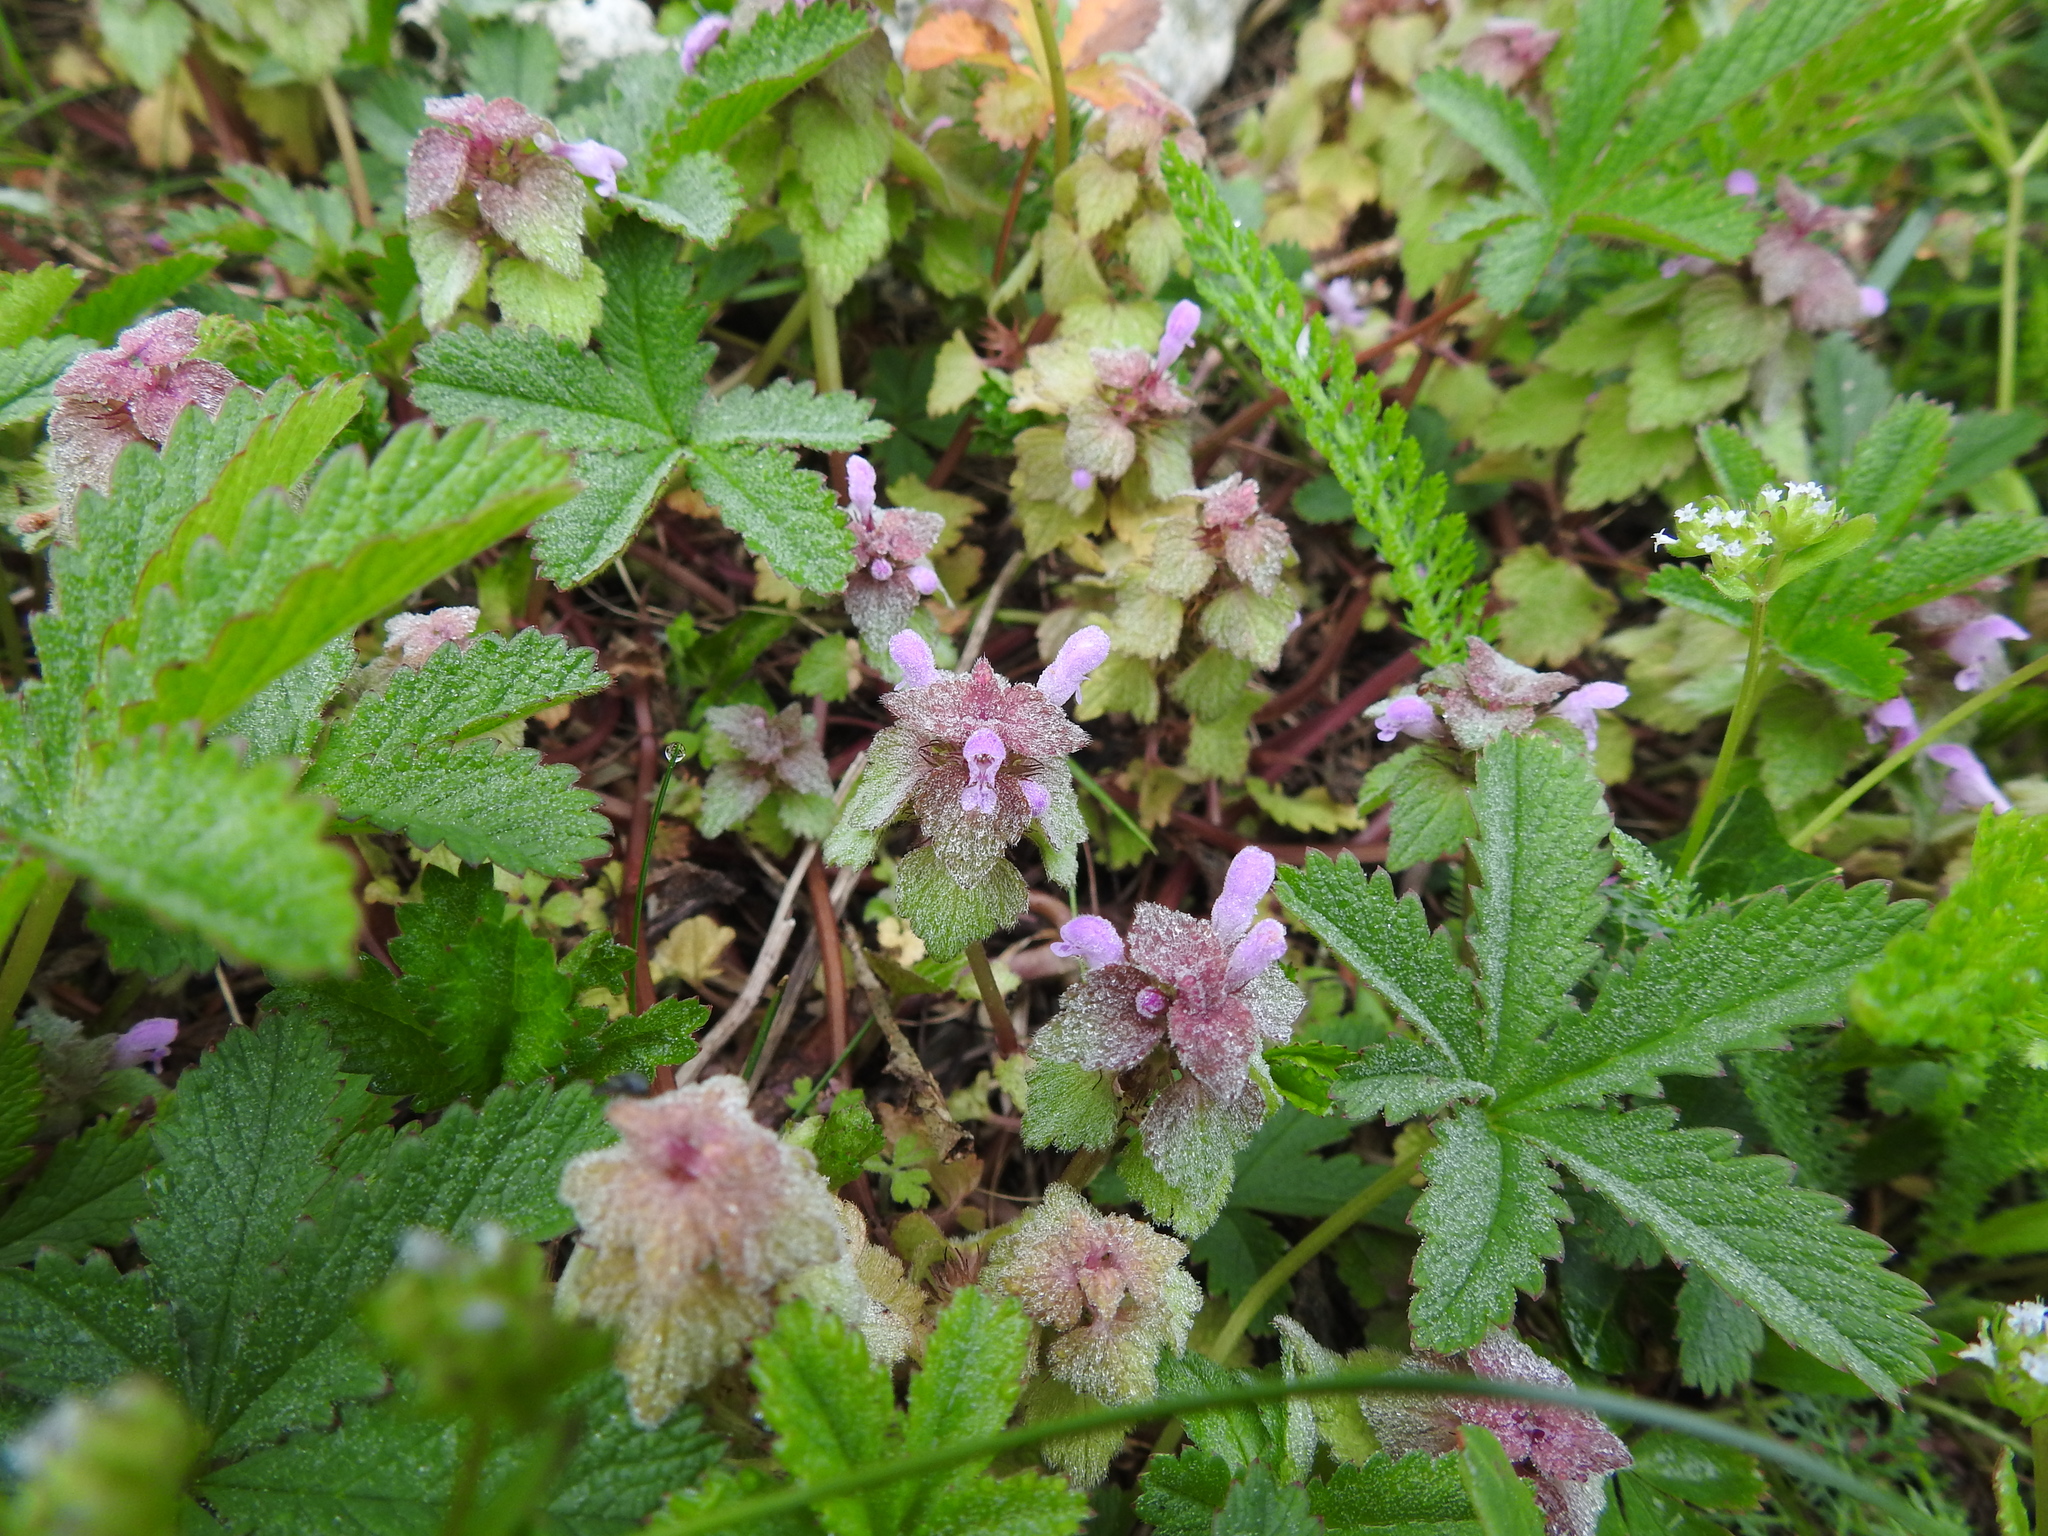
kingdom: Plantae
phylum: Tracheophyta
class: Magnoliopsida
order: Lamiales
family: Lamiaceae
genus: Lamium
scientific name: Lamium purpureum
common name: Red dead-nettle
